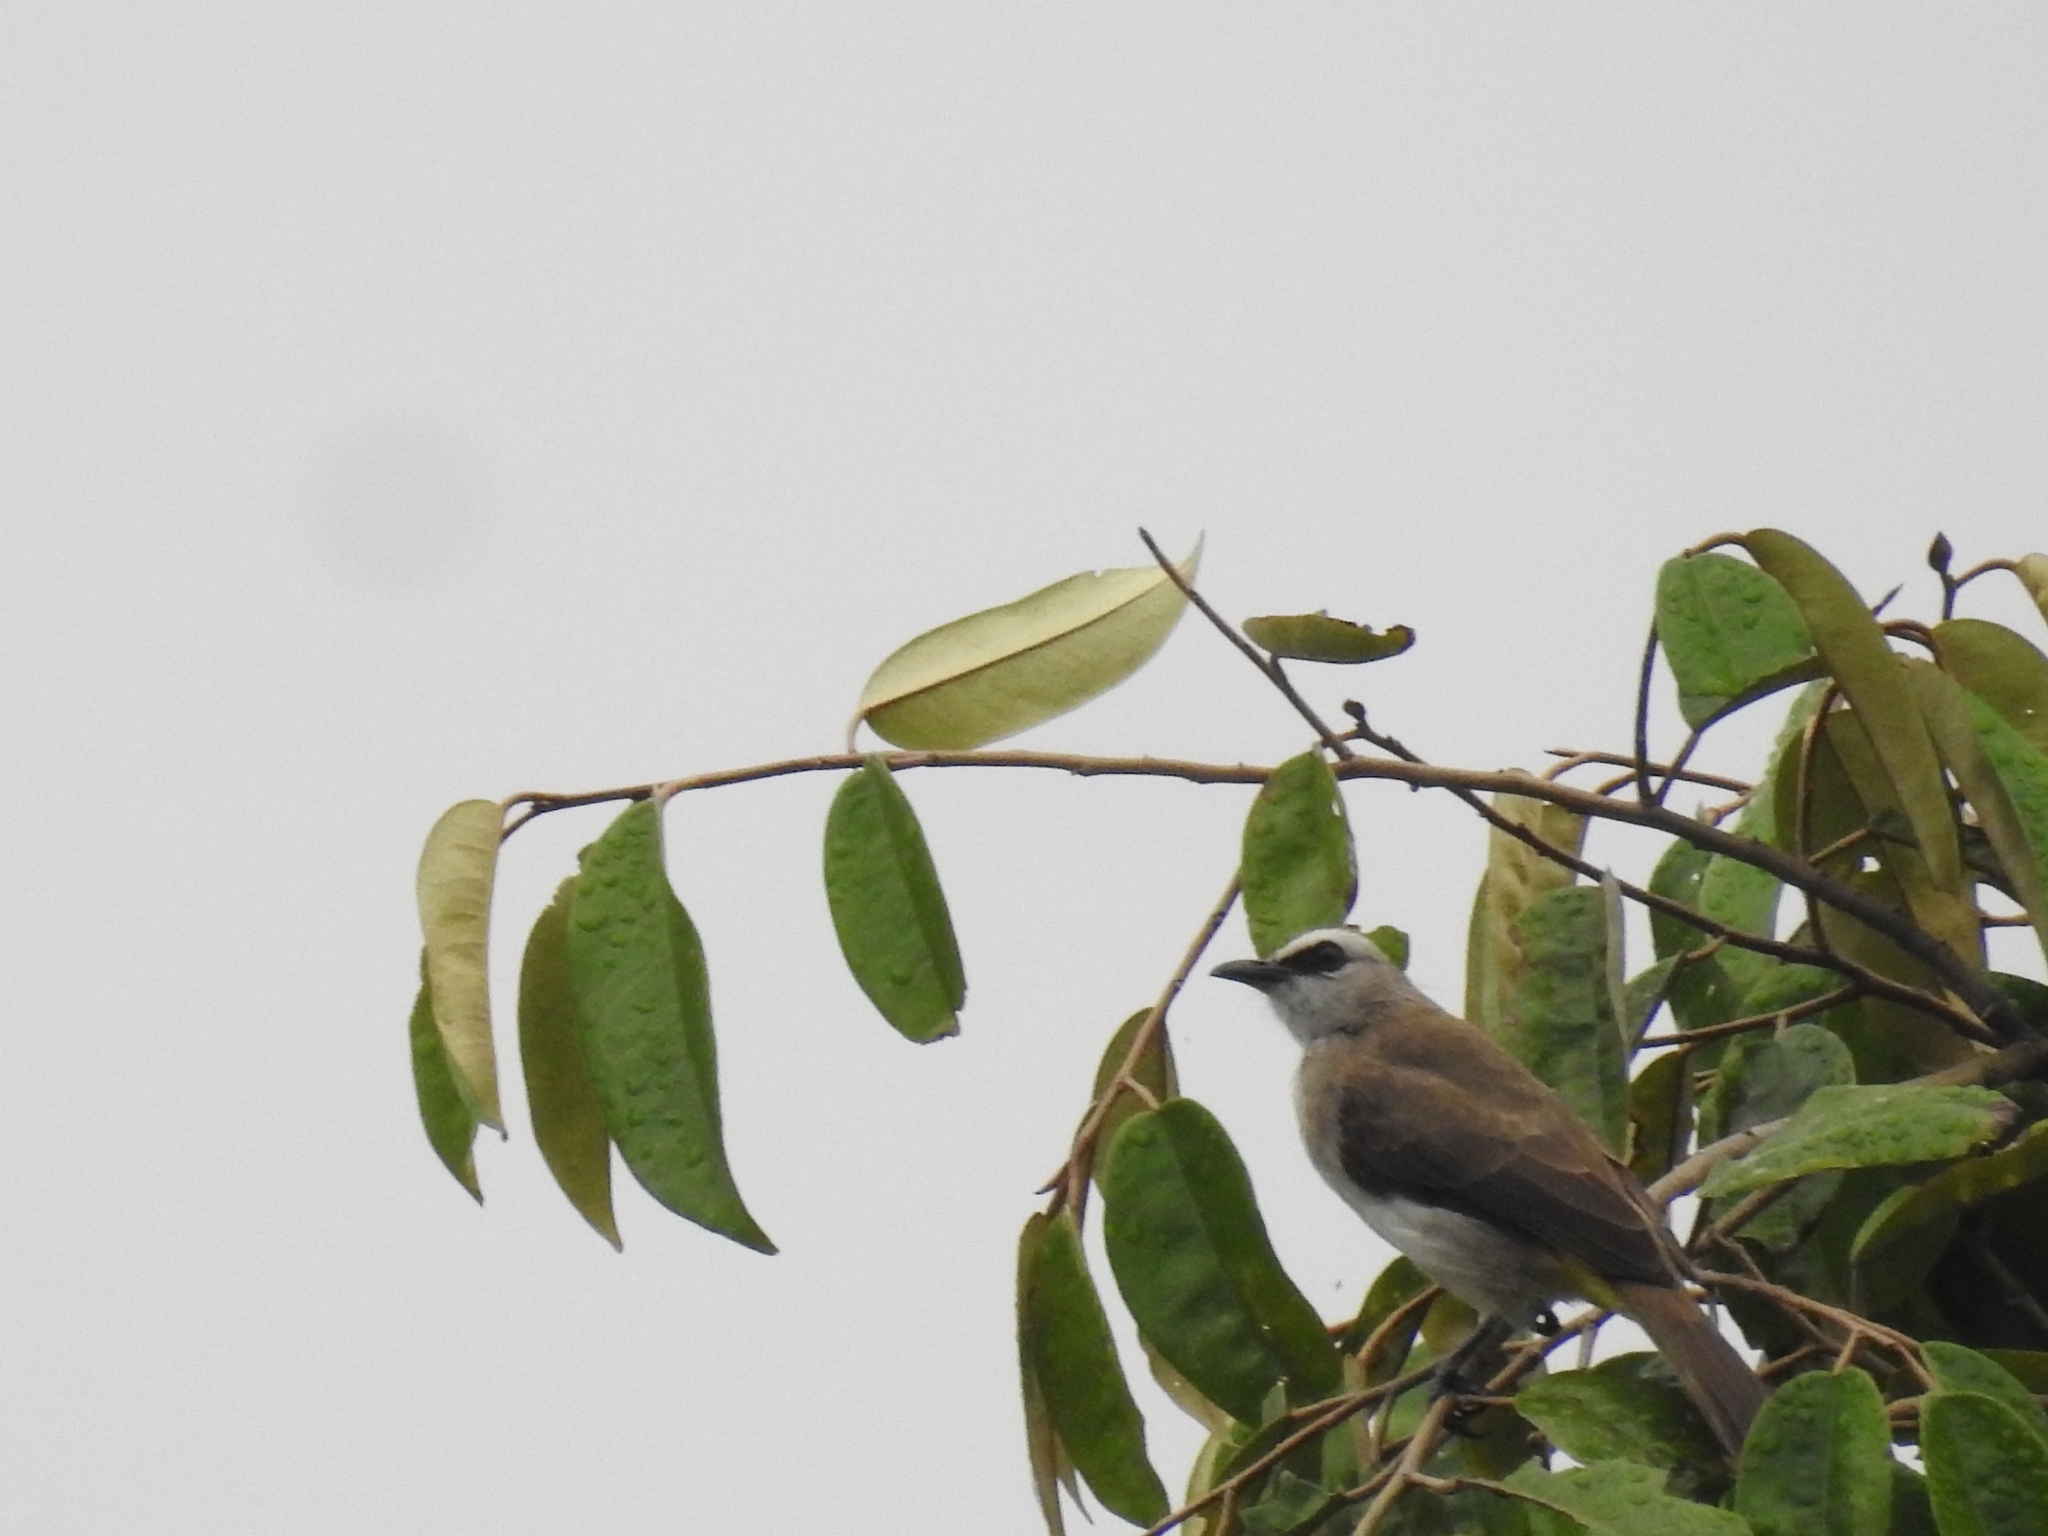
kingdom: Animalia
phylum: Chordata
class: Aves
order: Passeriformes
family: Pycnonotidae
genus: Pycnonotus
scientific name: Pycnonotus goiavier
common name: Yellow-vented bulbul
